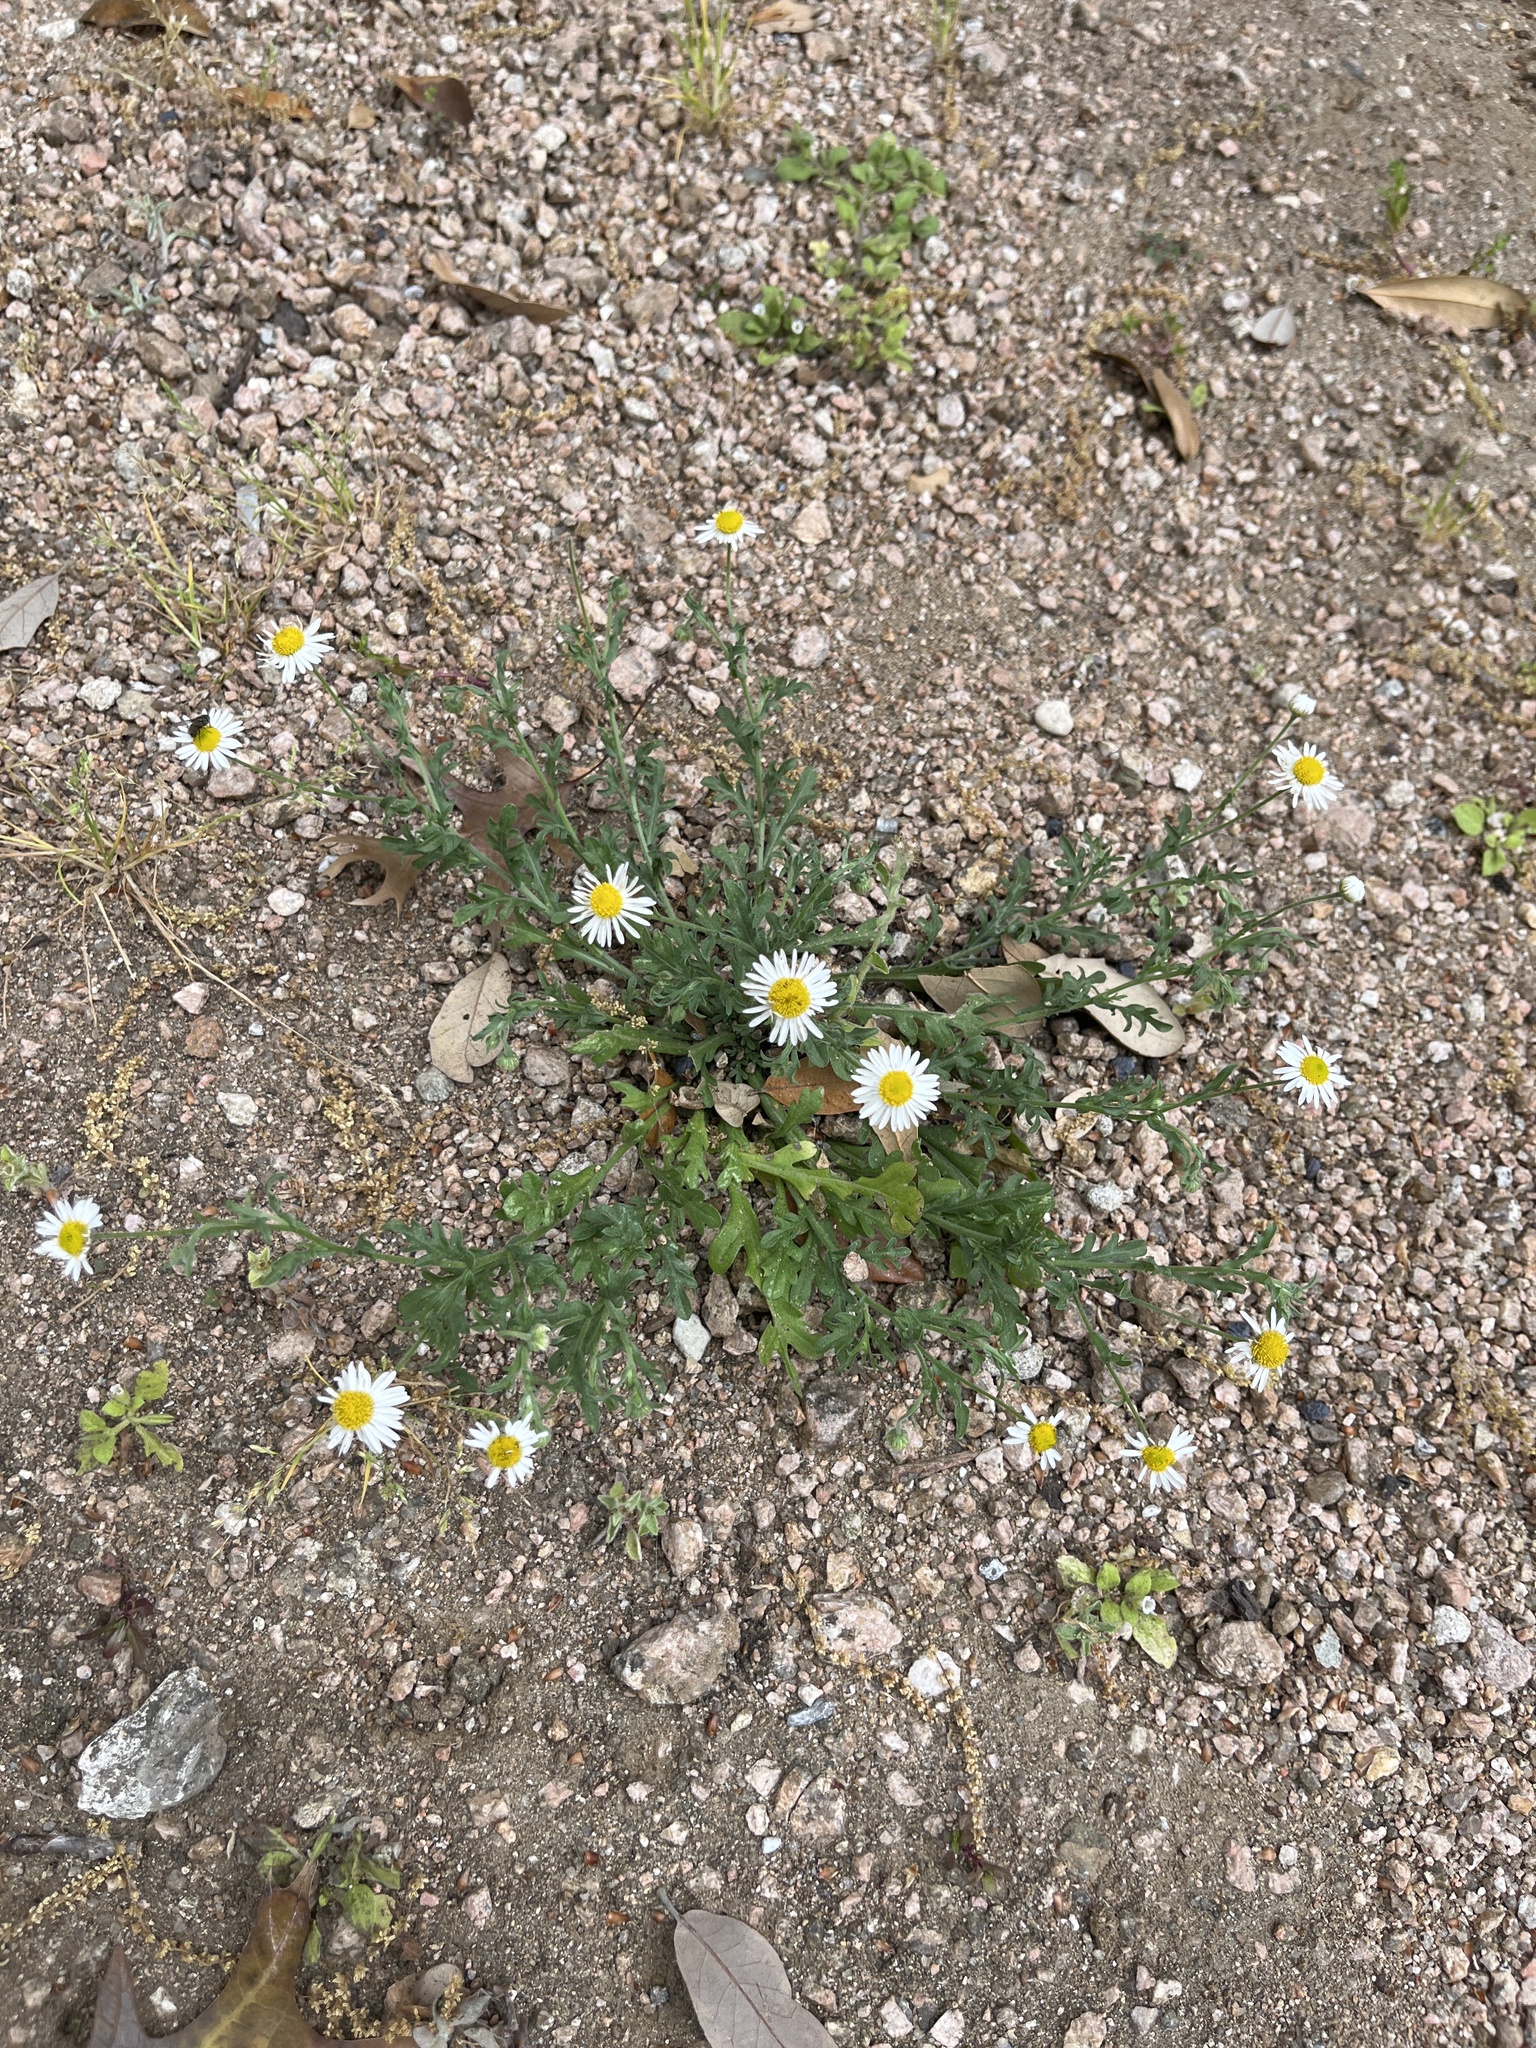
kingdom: Plantae
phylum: Tracheophyta
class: Magnoliopsida
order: Asterales
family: Asteraceae
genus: Aphanostephus
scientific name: Aphanostephus ramosissimus
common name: Plains lazy daisy
